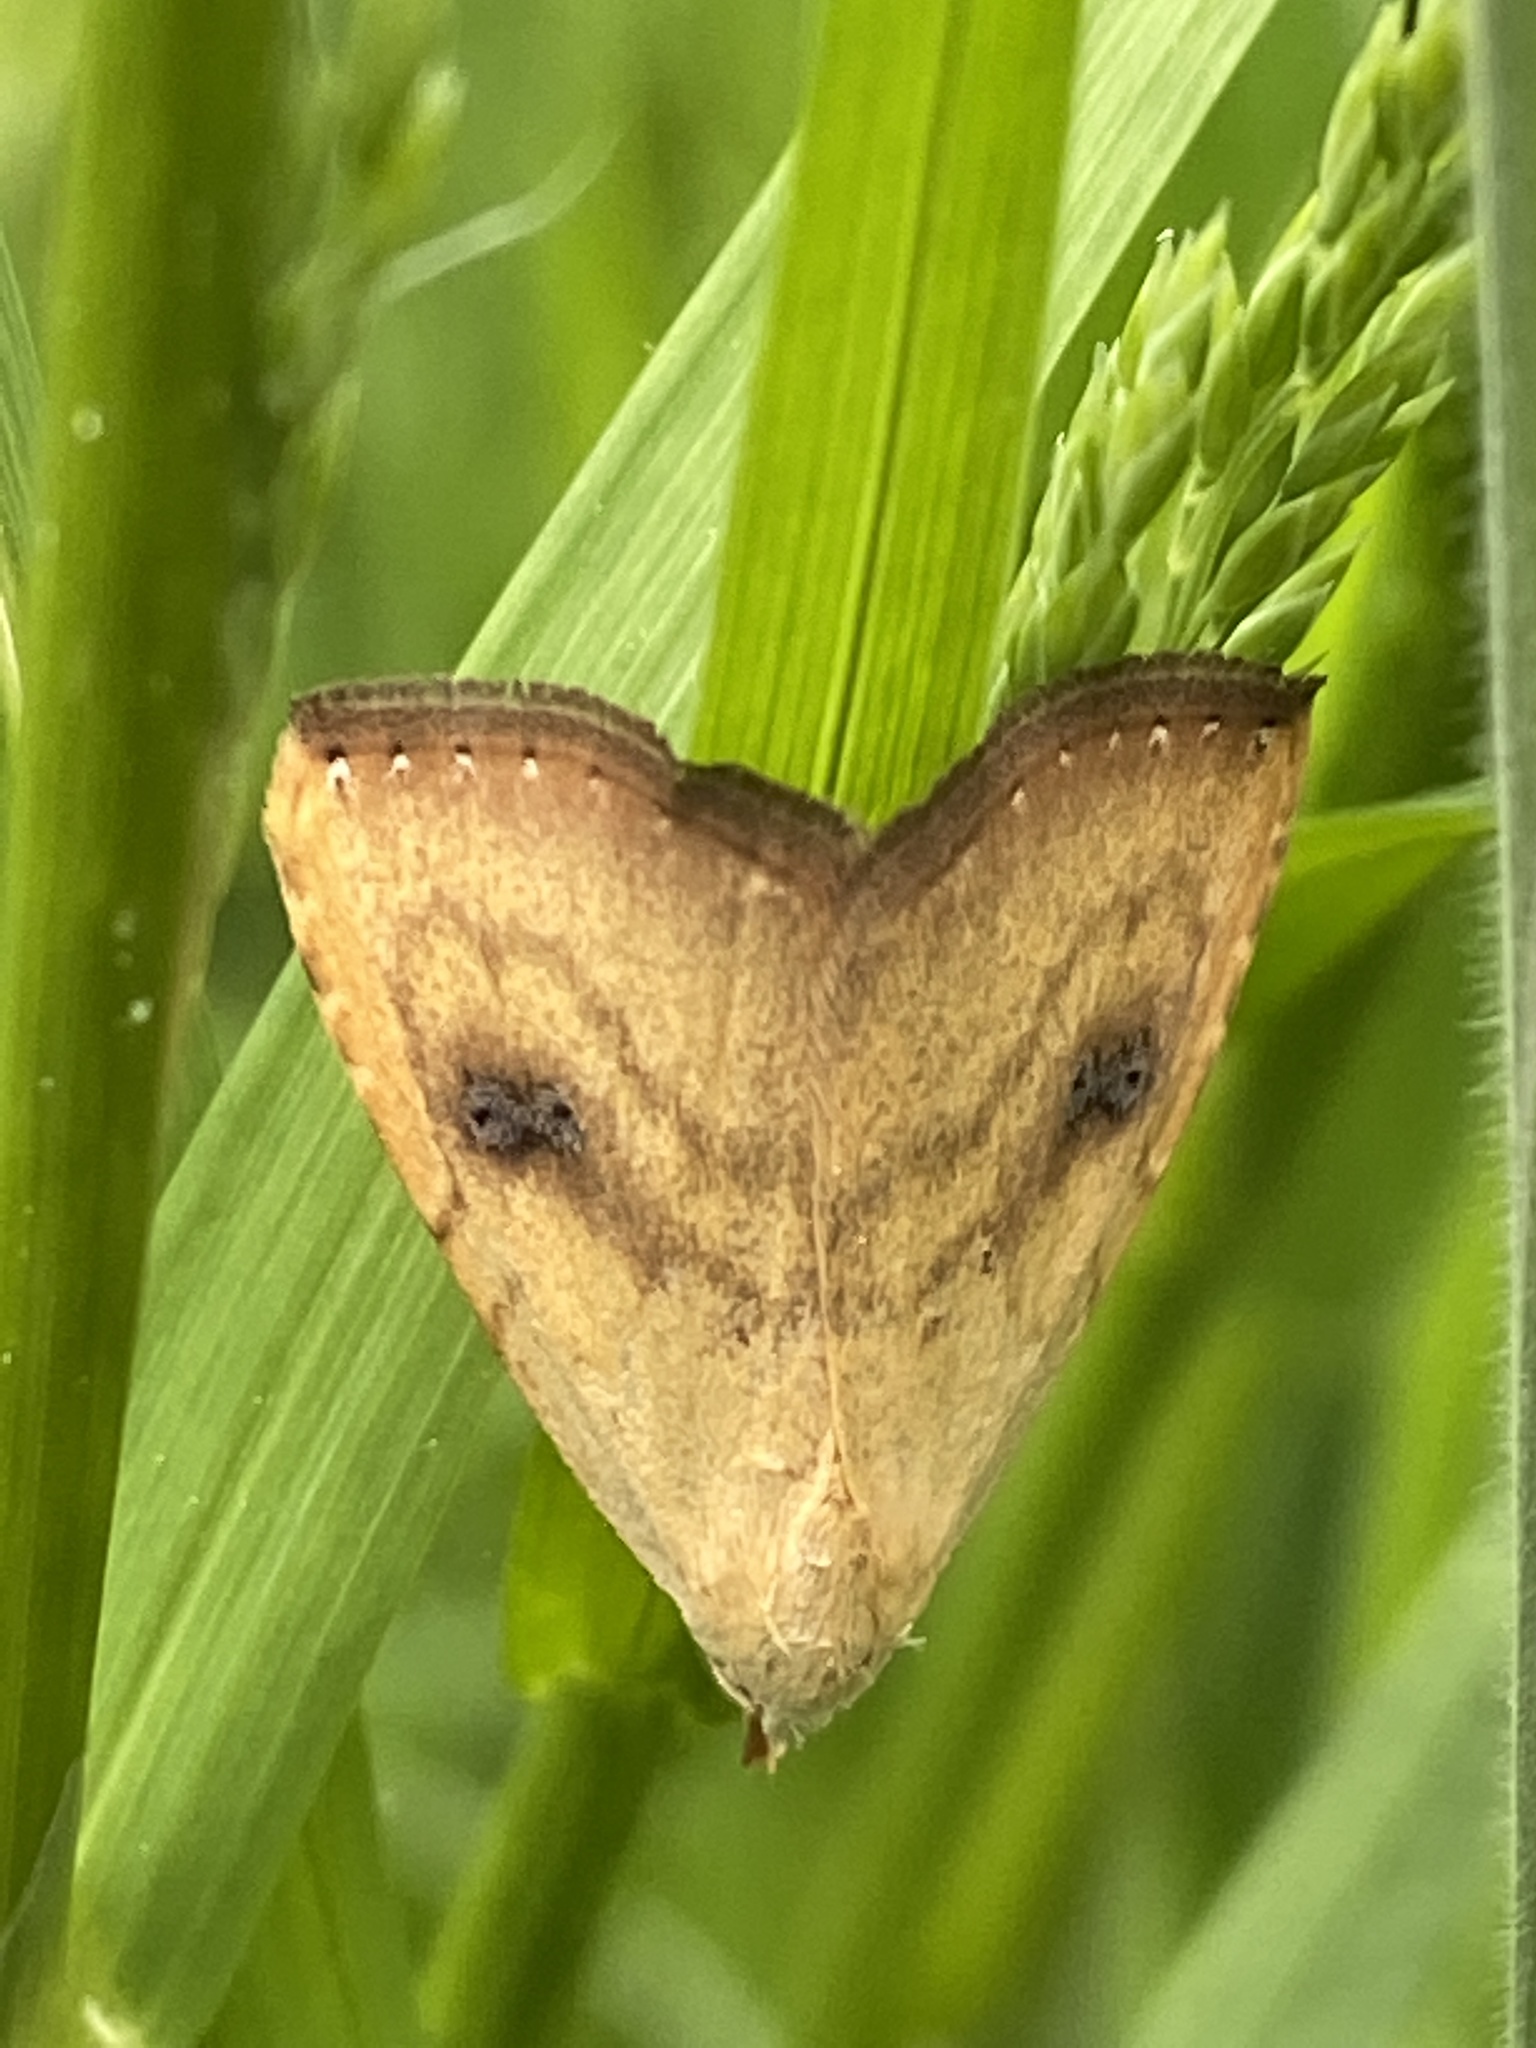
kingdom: Animalia
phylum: Arthropoda
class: Insecta
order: Lepidoptera
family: Erebidae
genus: Rivula
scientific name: Rivula sericealis
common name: Straw dot
